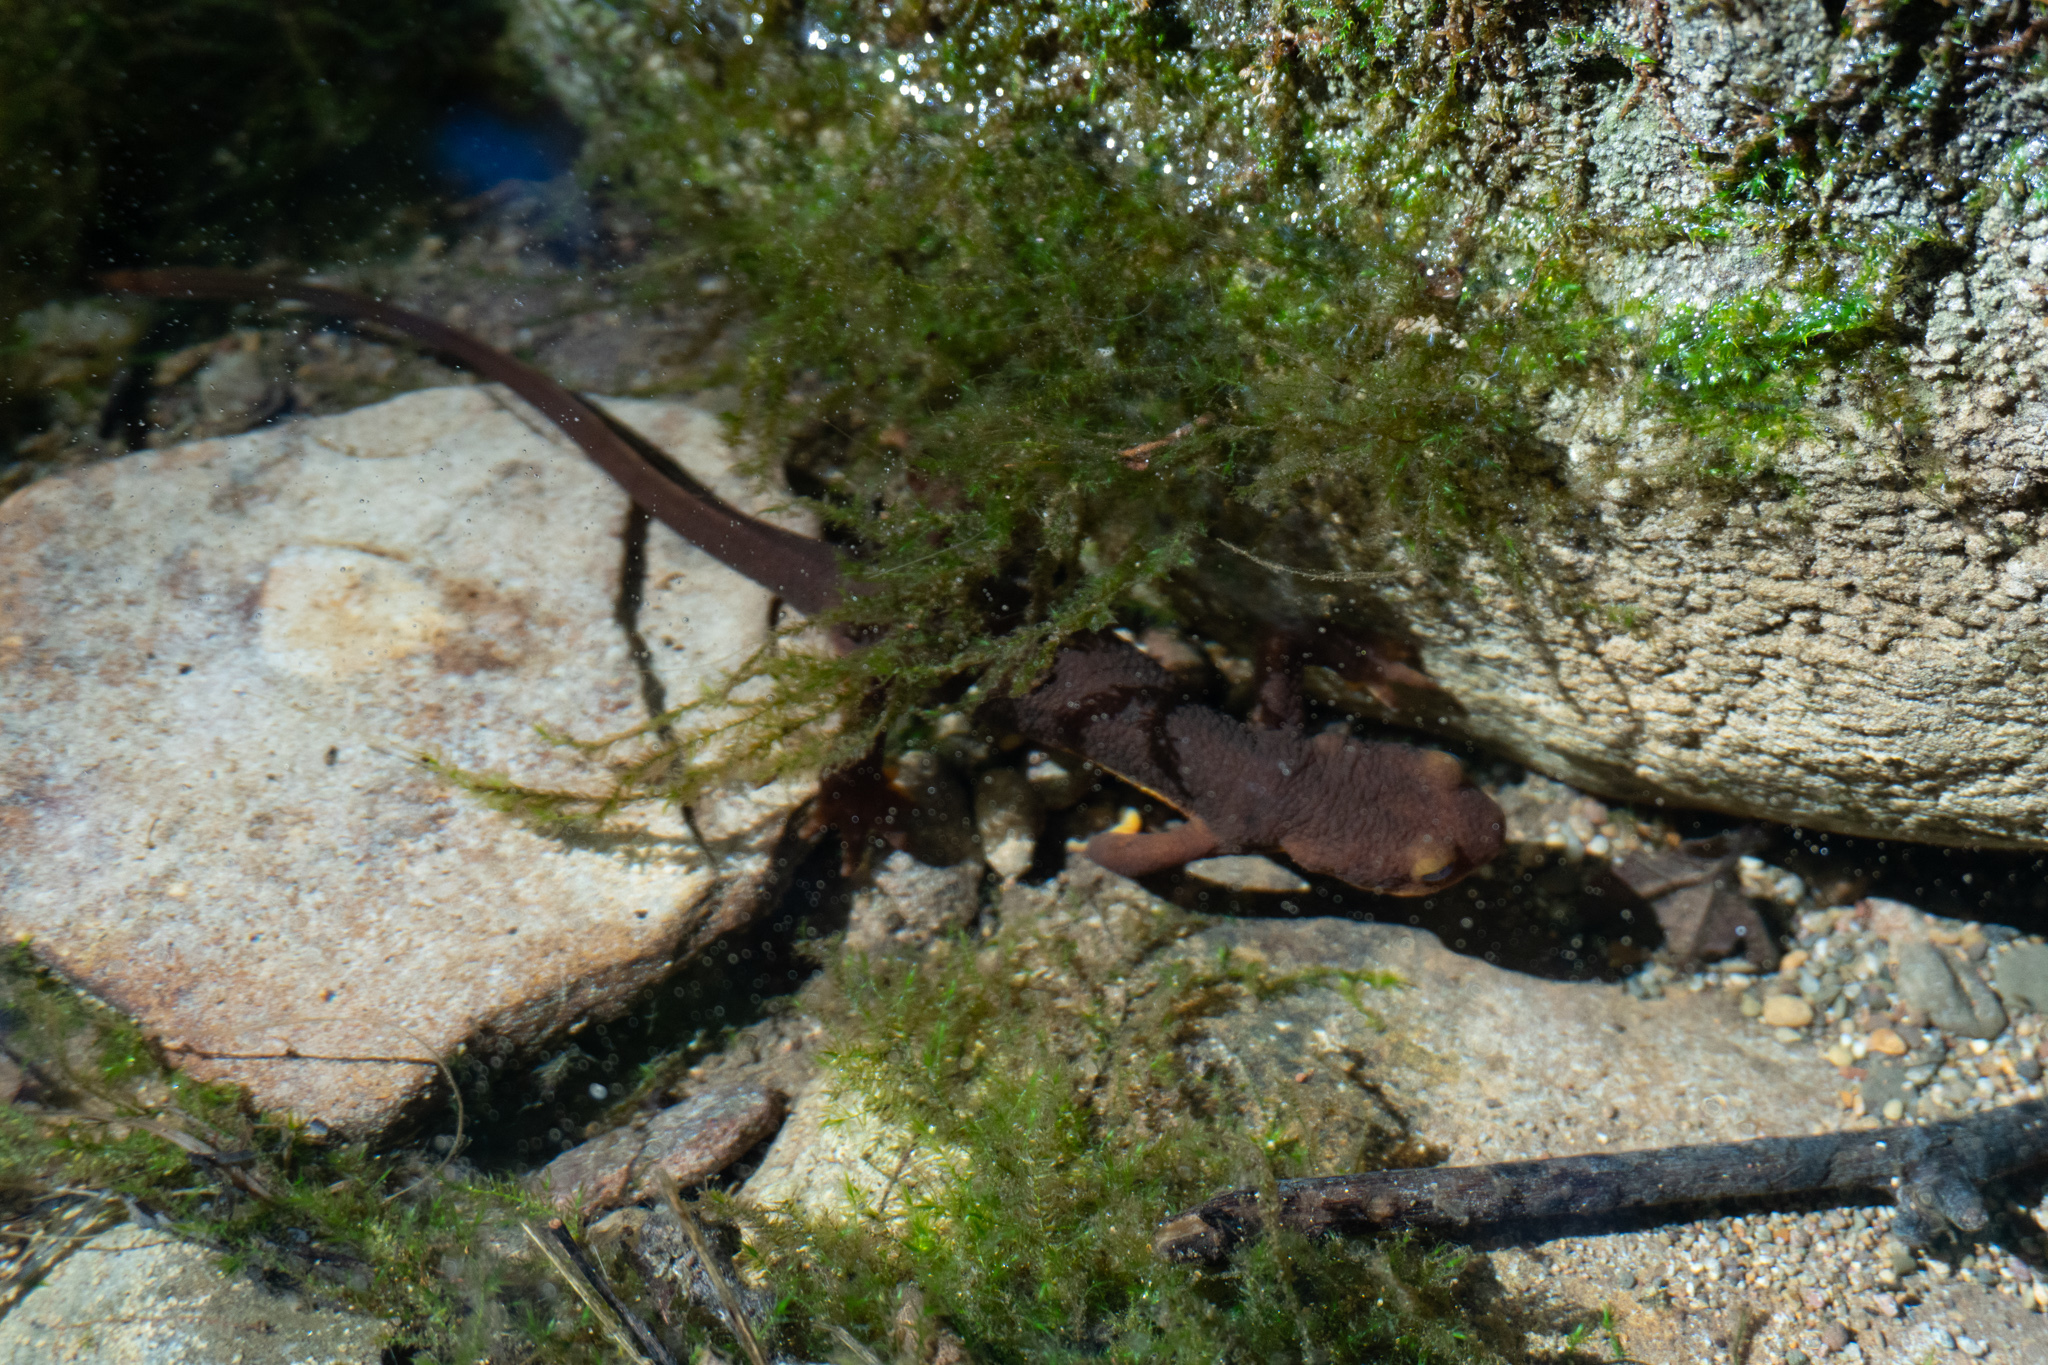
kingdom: Animalia
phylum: Chordata
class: Amphibia
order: Caudata
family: Salamandridae
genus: Taricha
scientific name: Taricha torosa
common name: California newt
